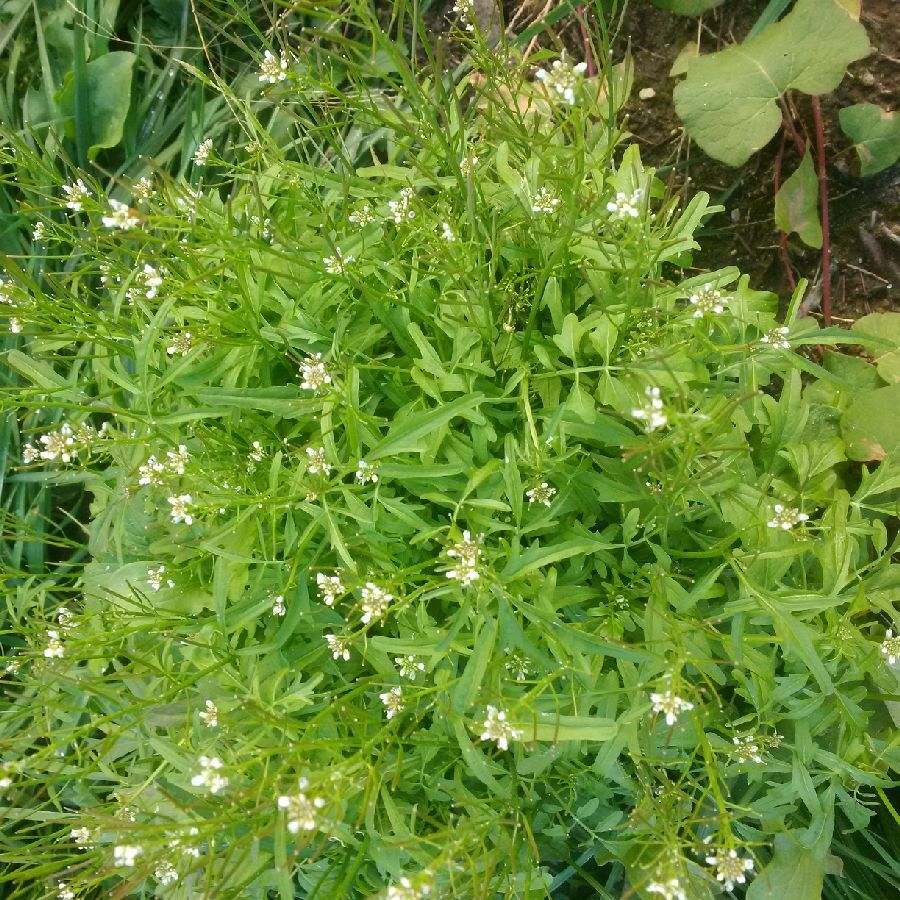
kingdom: Plantae
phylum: Tracheophyta
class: Magnoliopsida
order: Brassicales
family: Brassicaceae
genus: Cardamine
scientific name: Cardamine pensylvanica
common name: Pennsylvania bittercress
